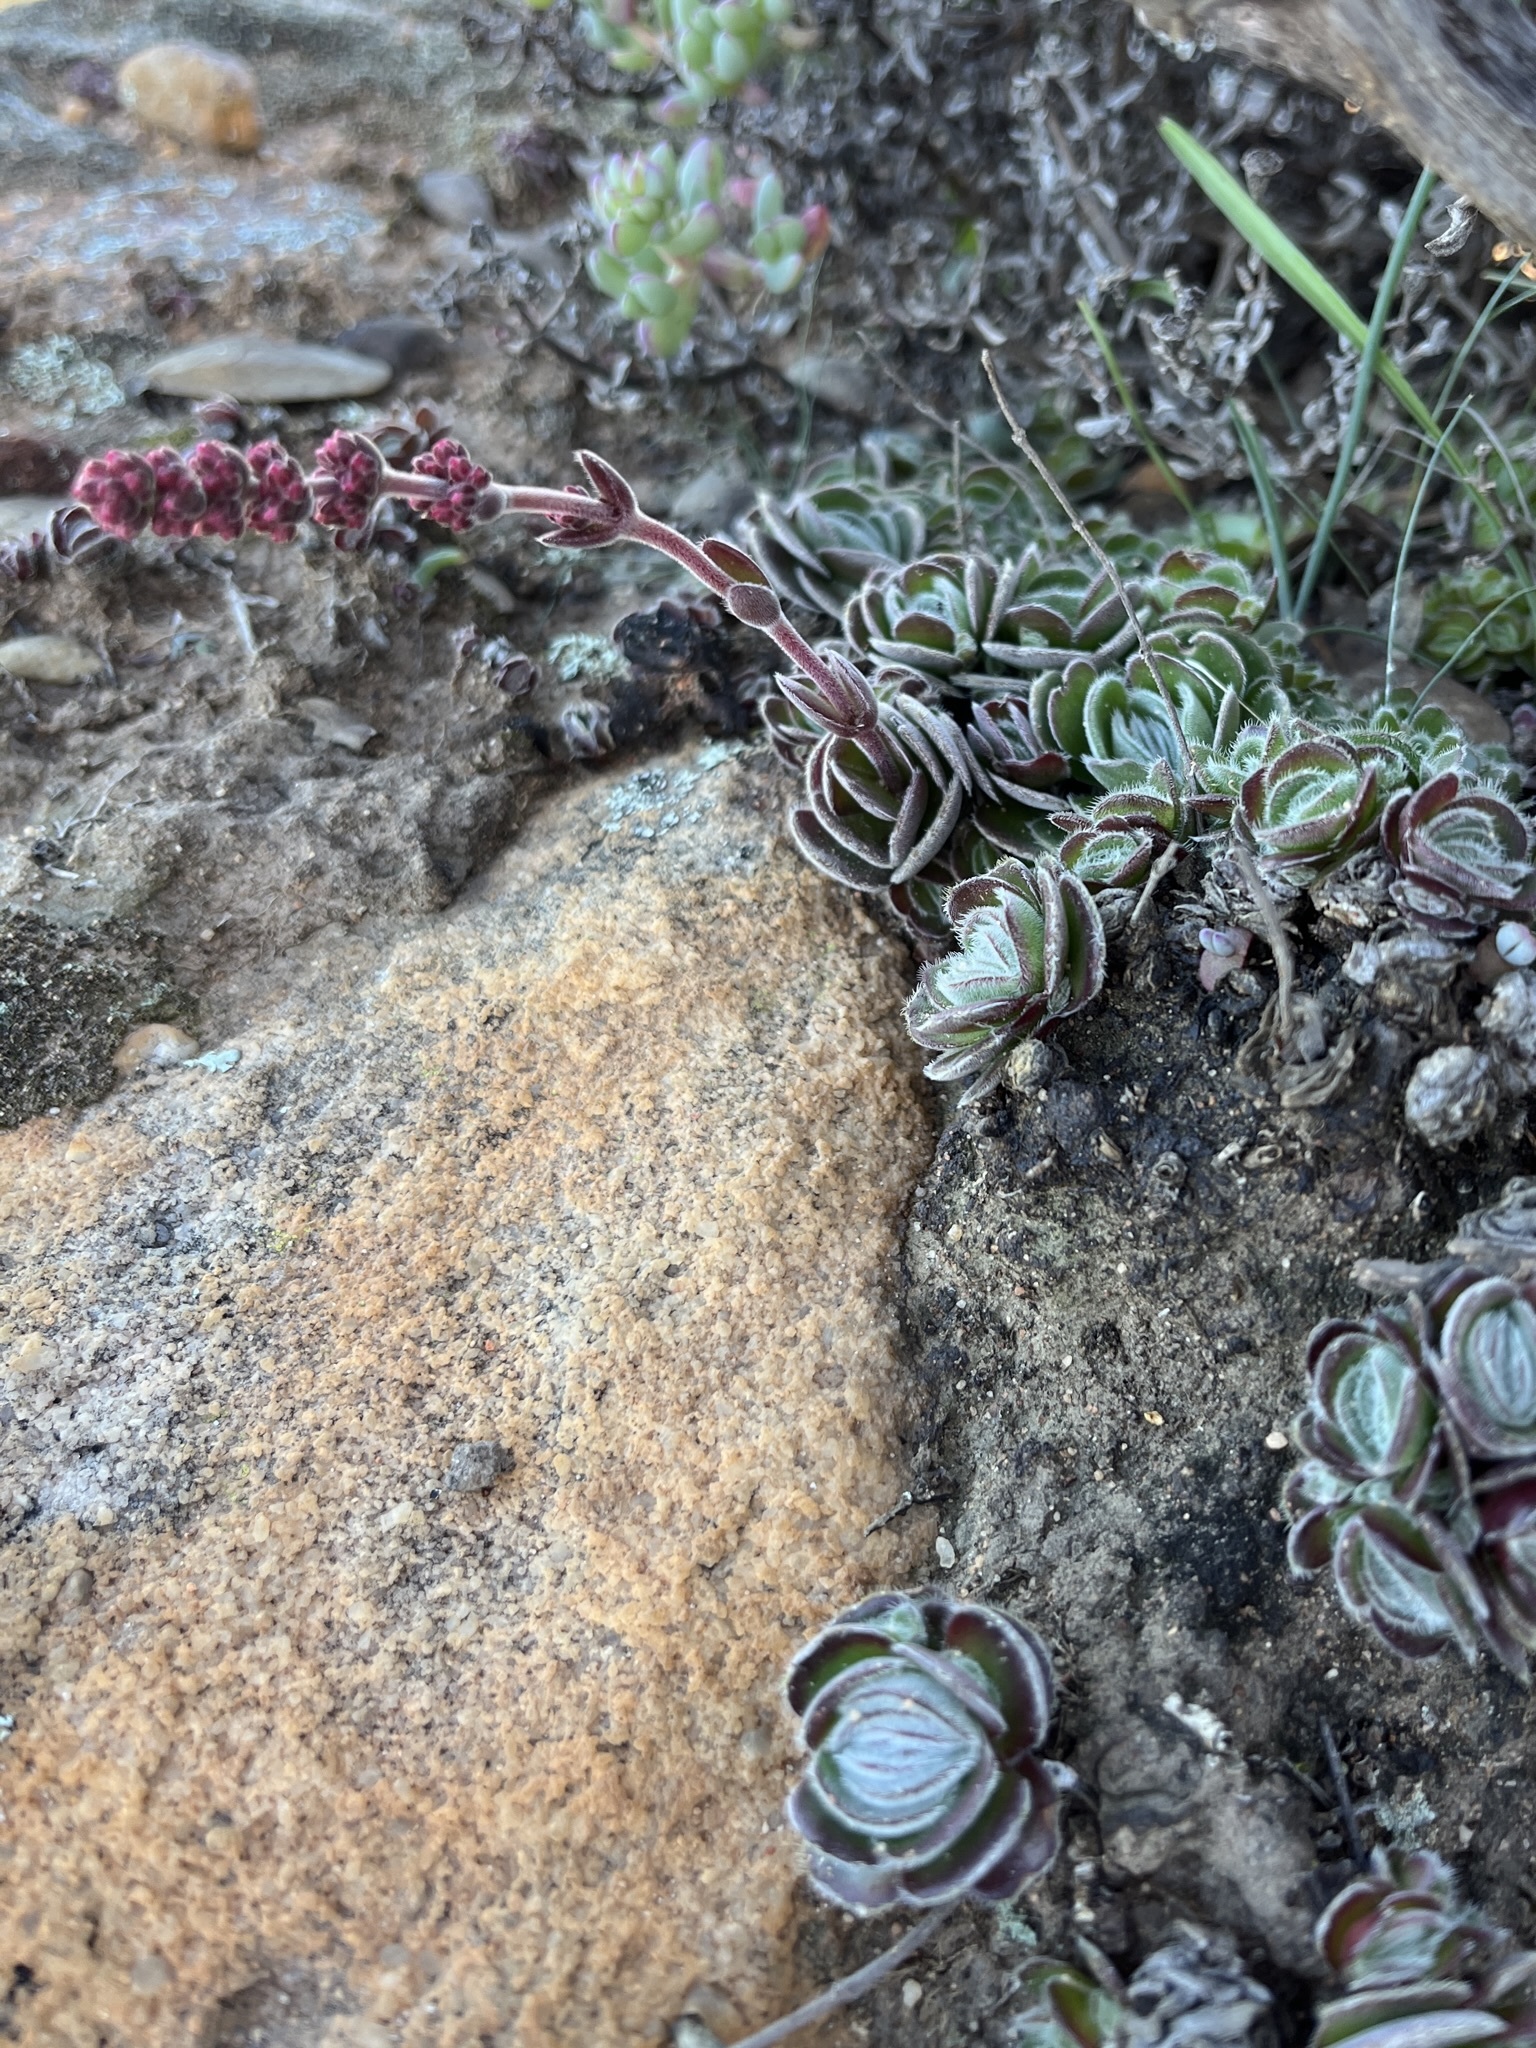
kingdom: Plantae
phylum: Tracheophyta
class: Magnoliopsida
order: Saxifragales
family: Crassulaceae
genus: Crassula
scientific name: Crassula tomentosa
